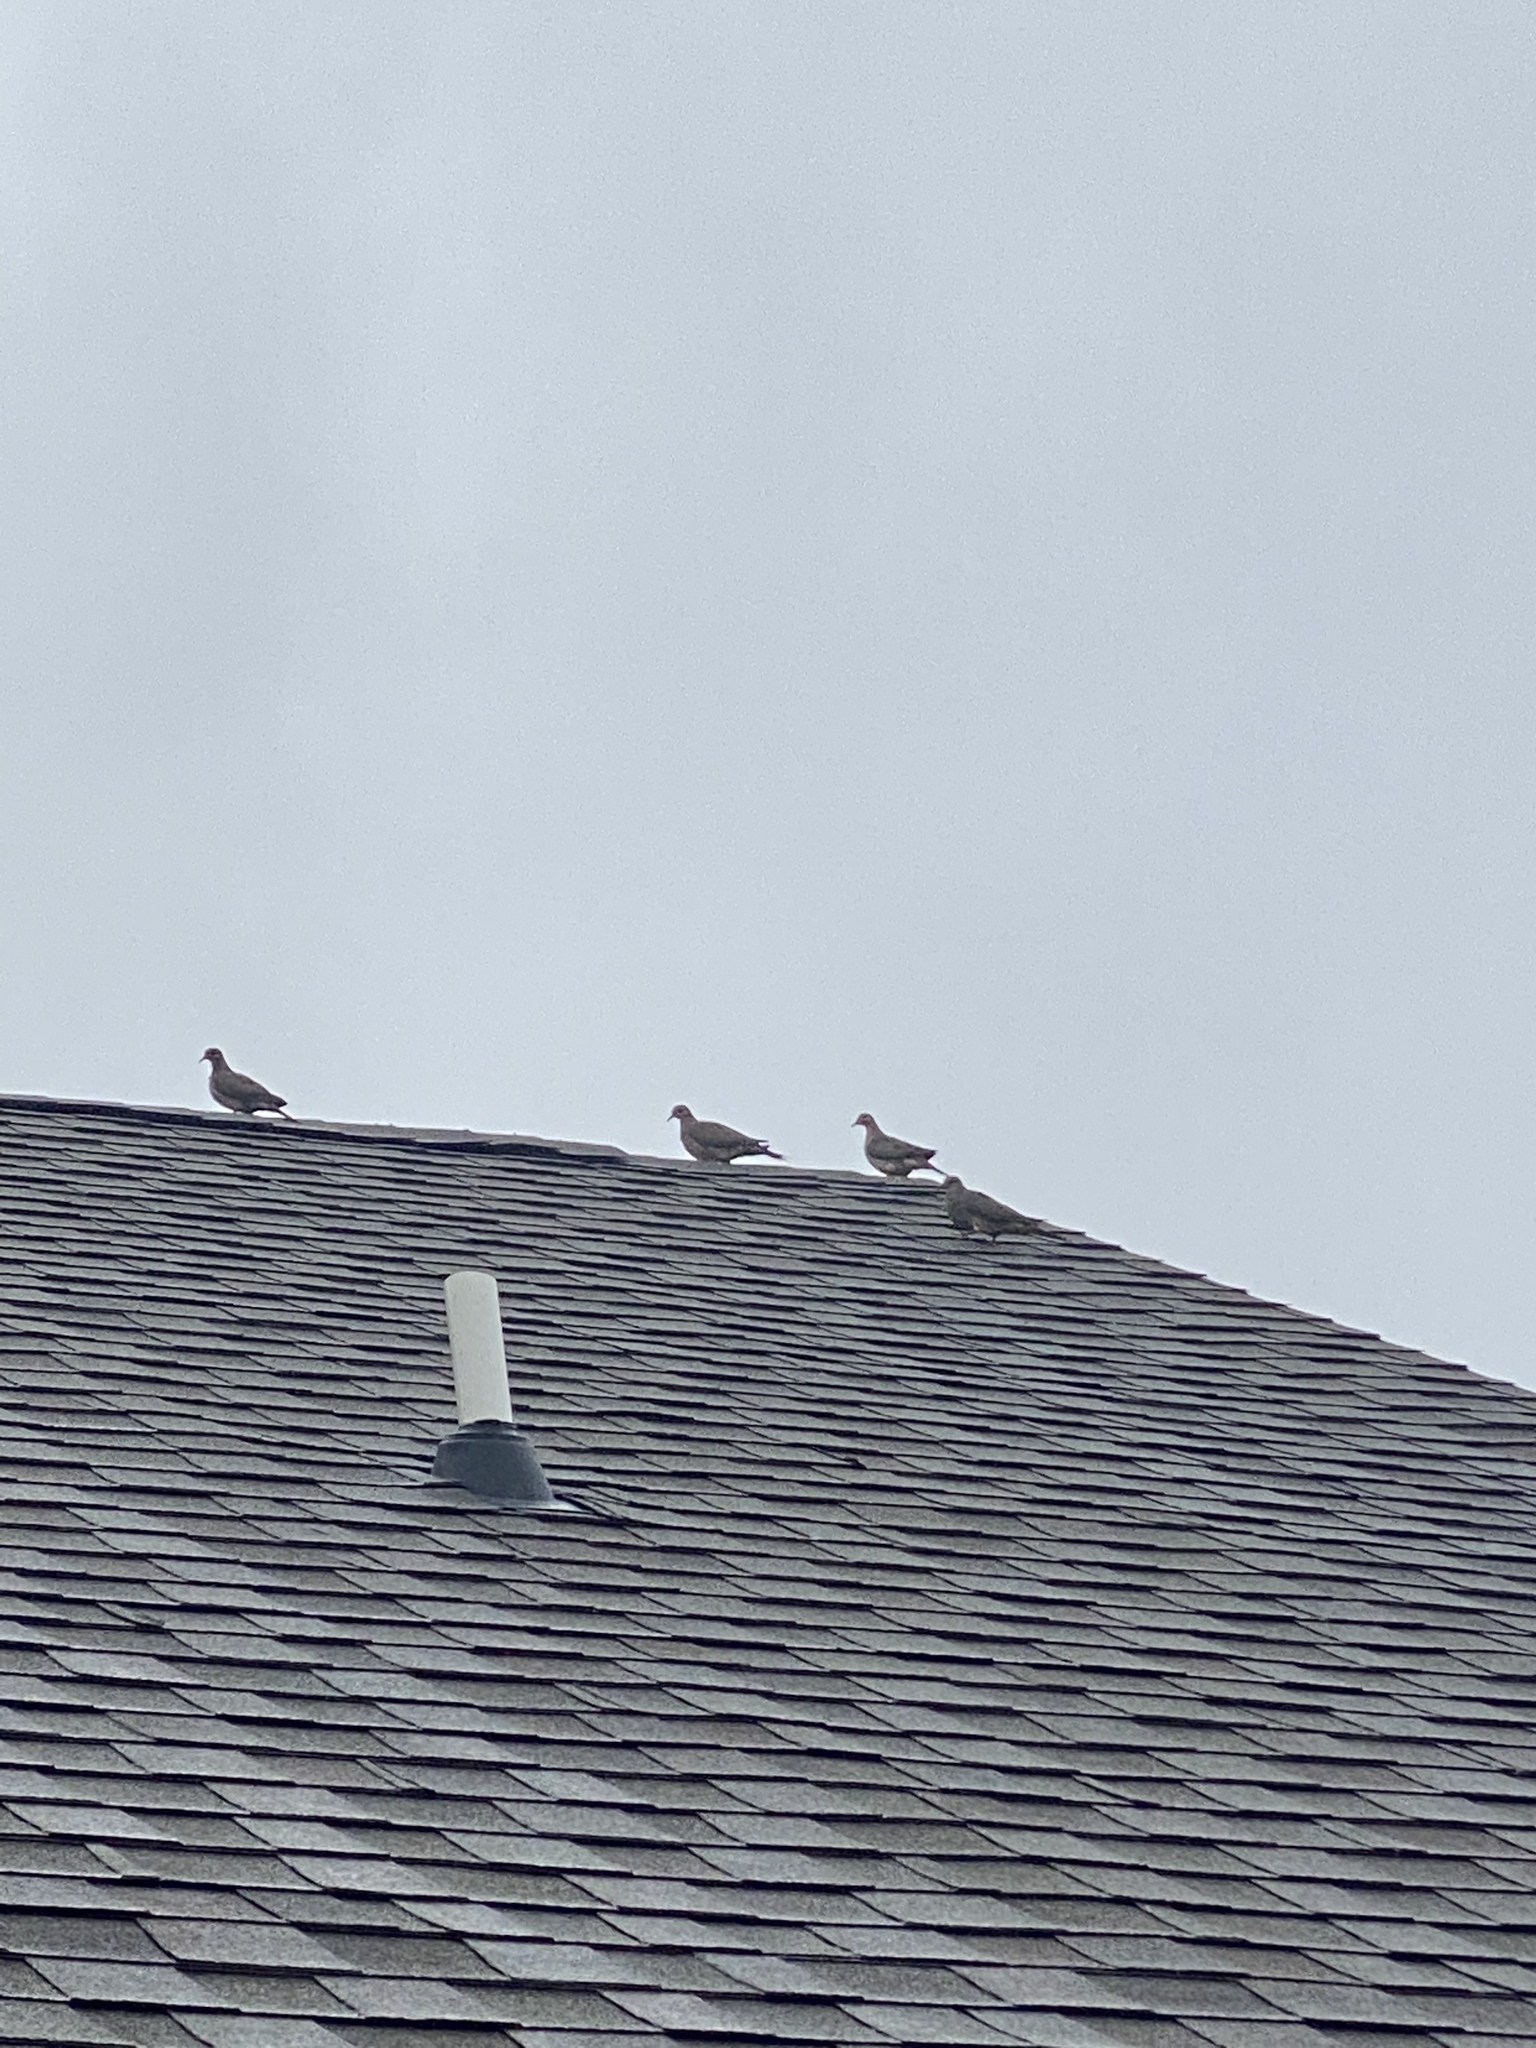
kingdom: Animalia
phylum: Chordata
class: Aves
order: Columbiformes
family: Columbidae
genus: Zenaida
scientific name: Zenaida macroura
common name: Mourning dove
